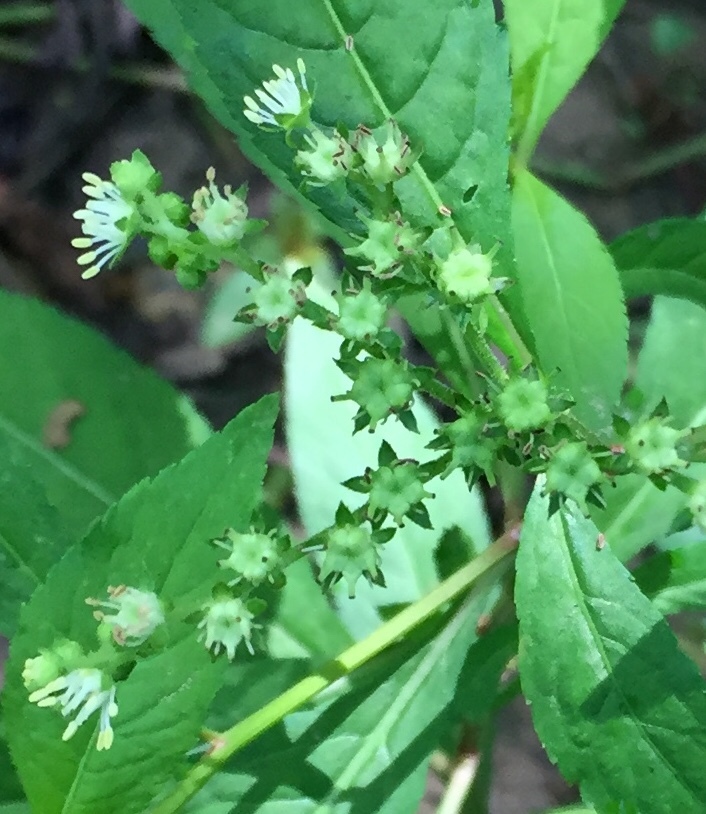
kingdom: Plantae
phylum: Tracheophyta
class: Magnoliopsida
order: Saxifragales
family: Penthoraceae
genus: Penthorum
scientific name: Penthorum sedoides
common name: Ditch stonecrop
